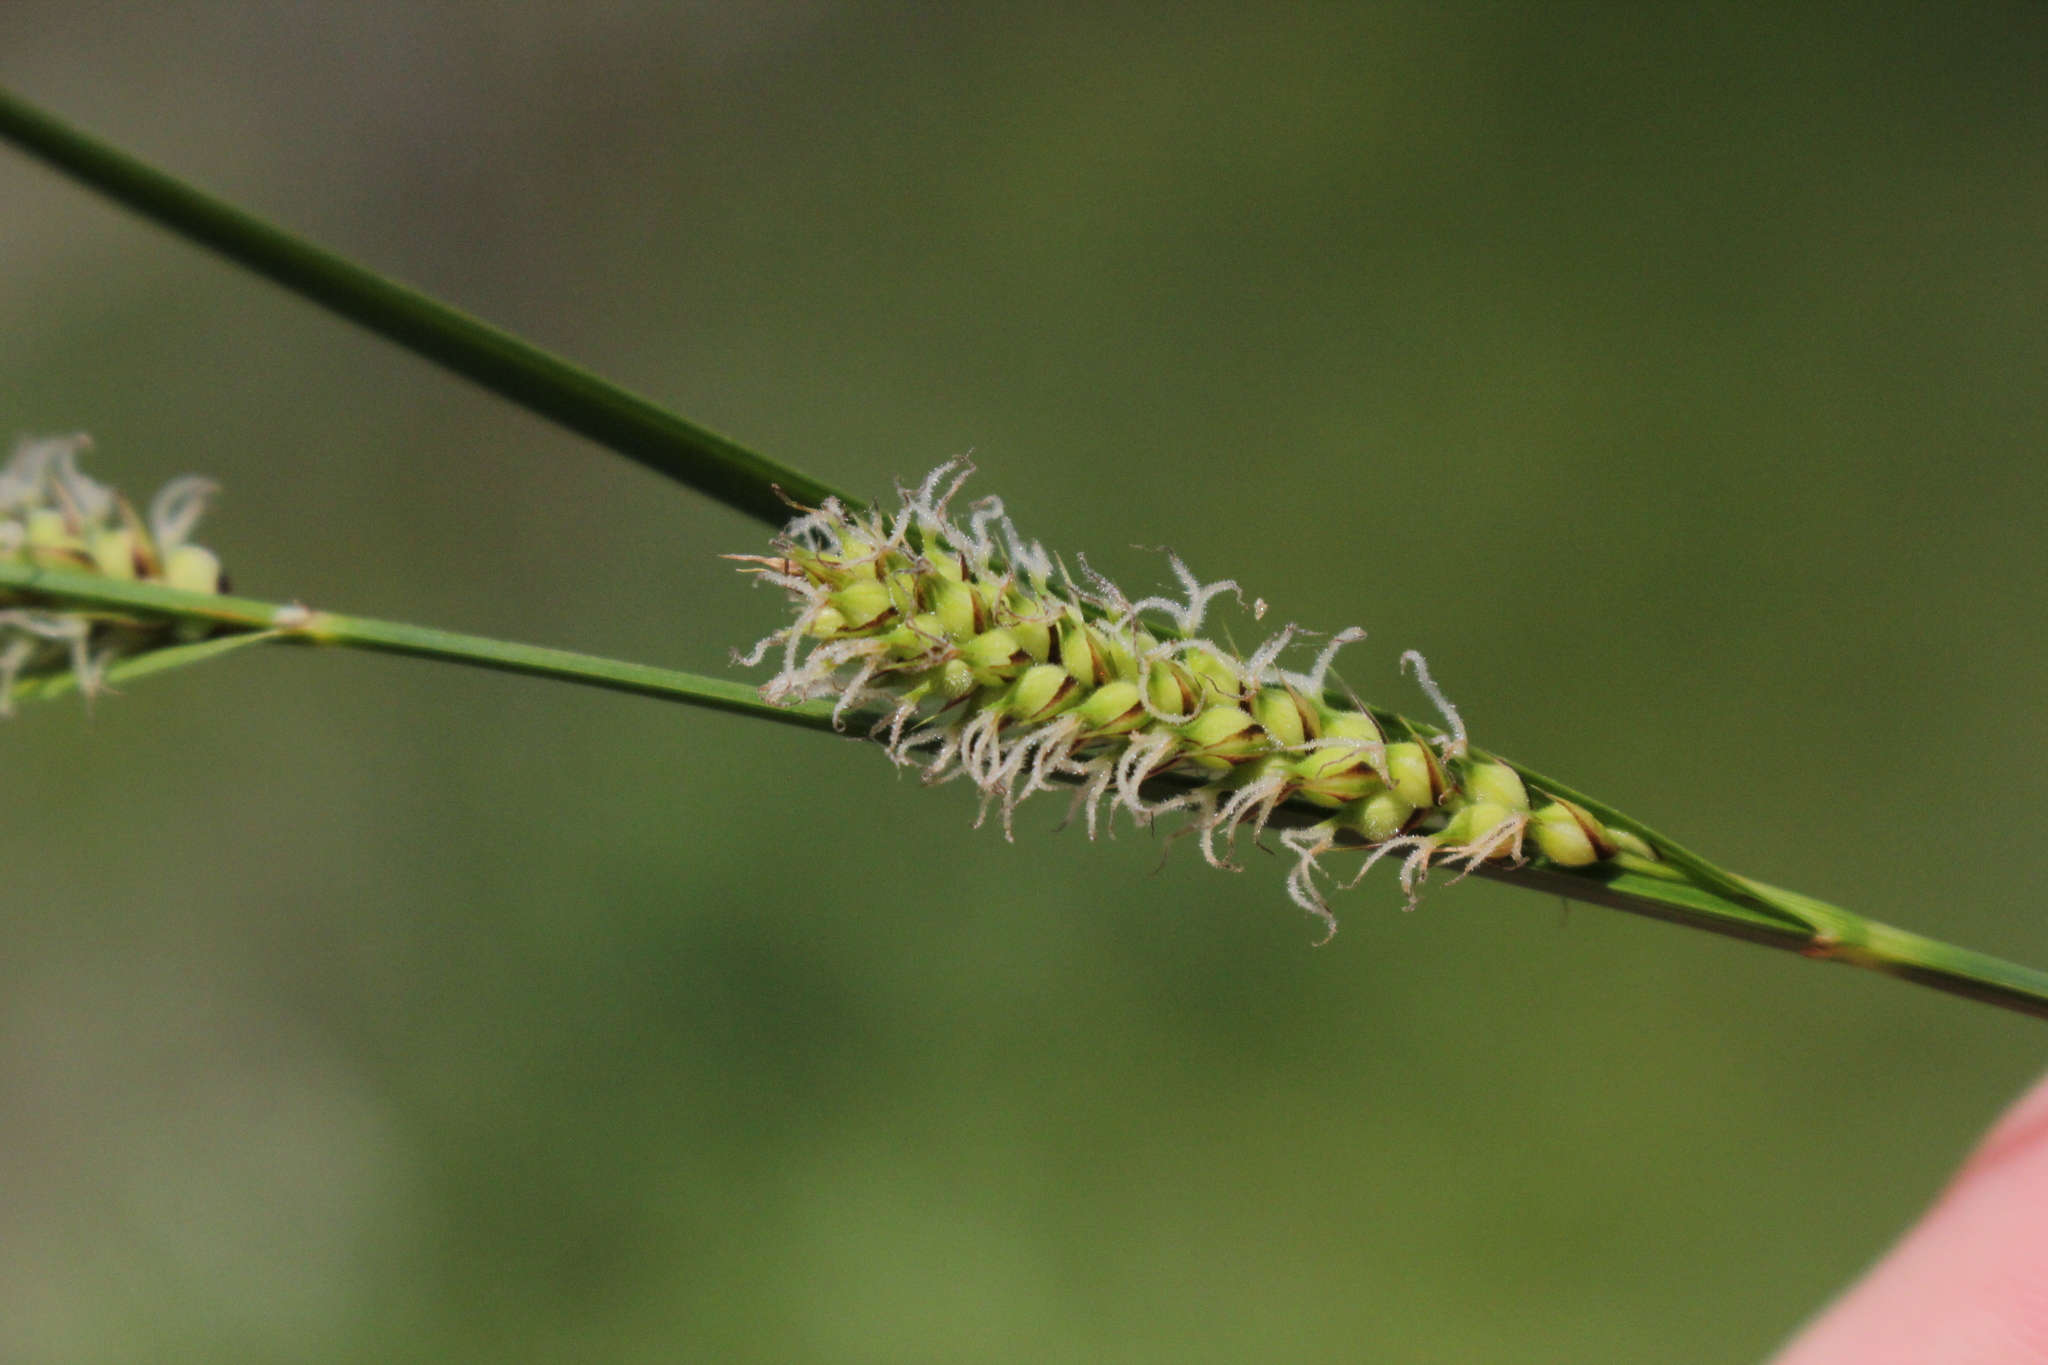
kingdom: Plantae
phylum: Tracheophyta
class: Liliopsida
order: Poales
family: Cyperaceae
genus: Carex
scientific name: Carex pellita
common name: Woolly sedge
